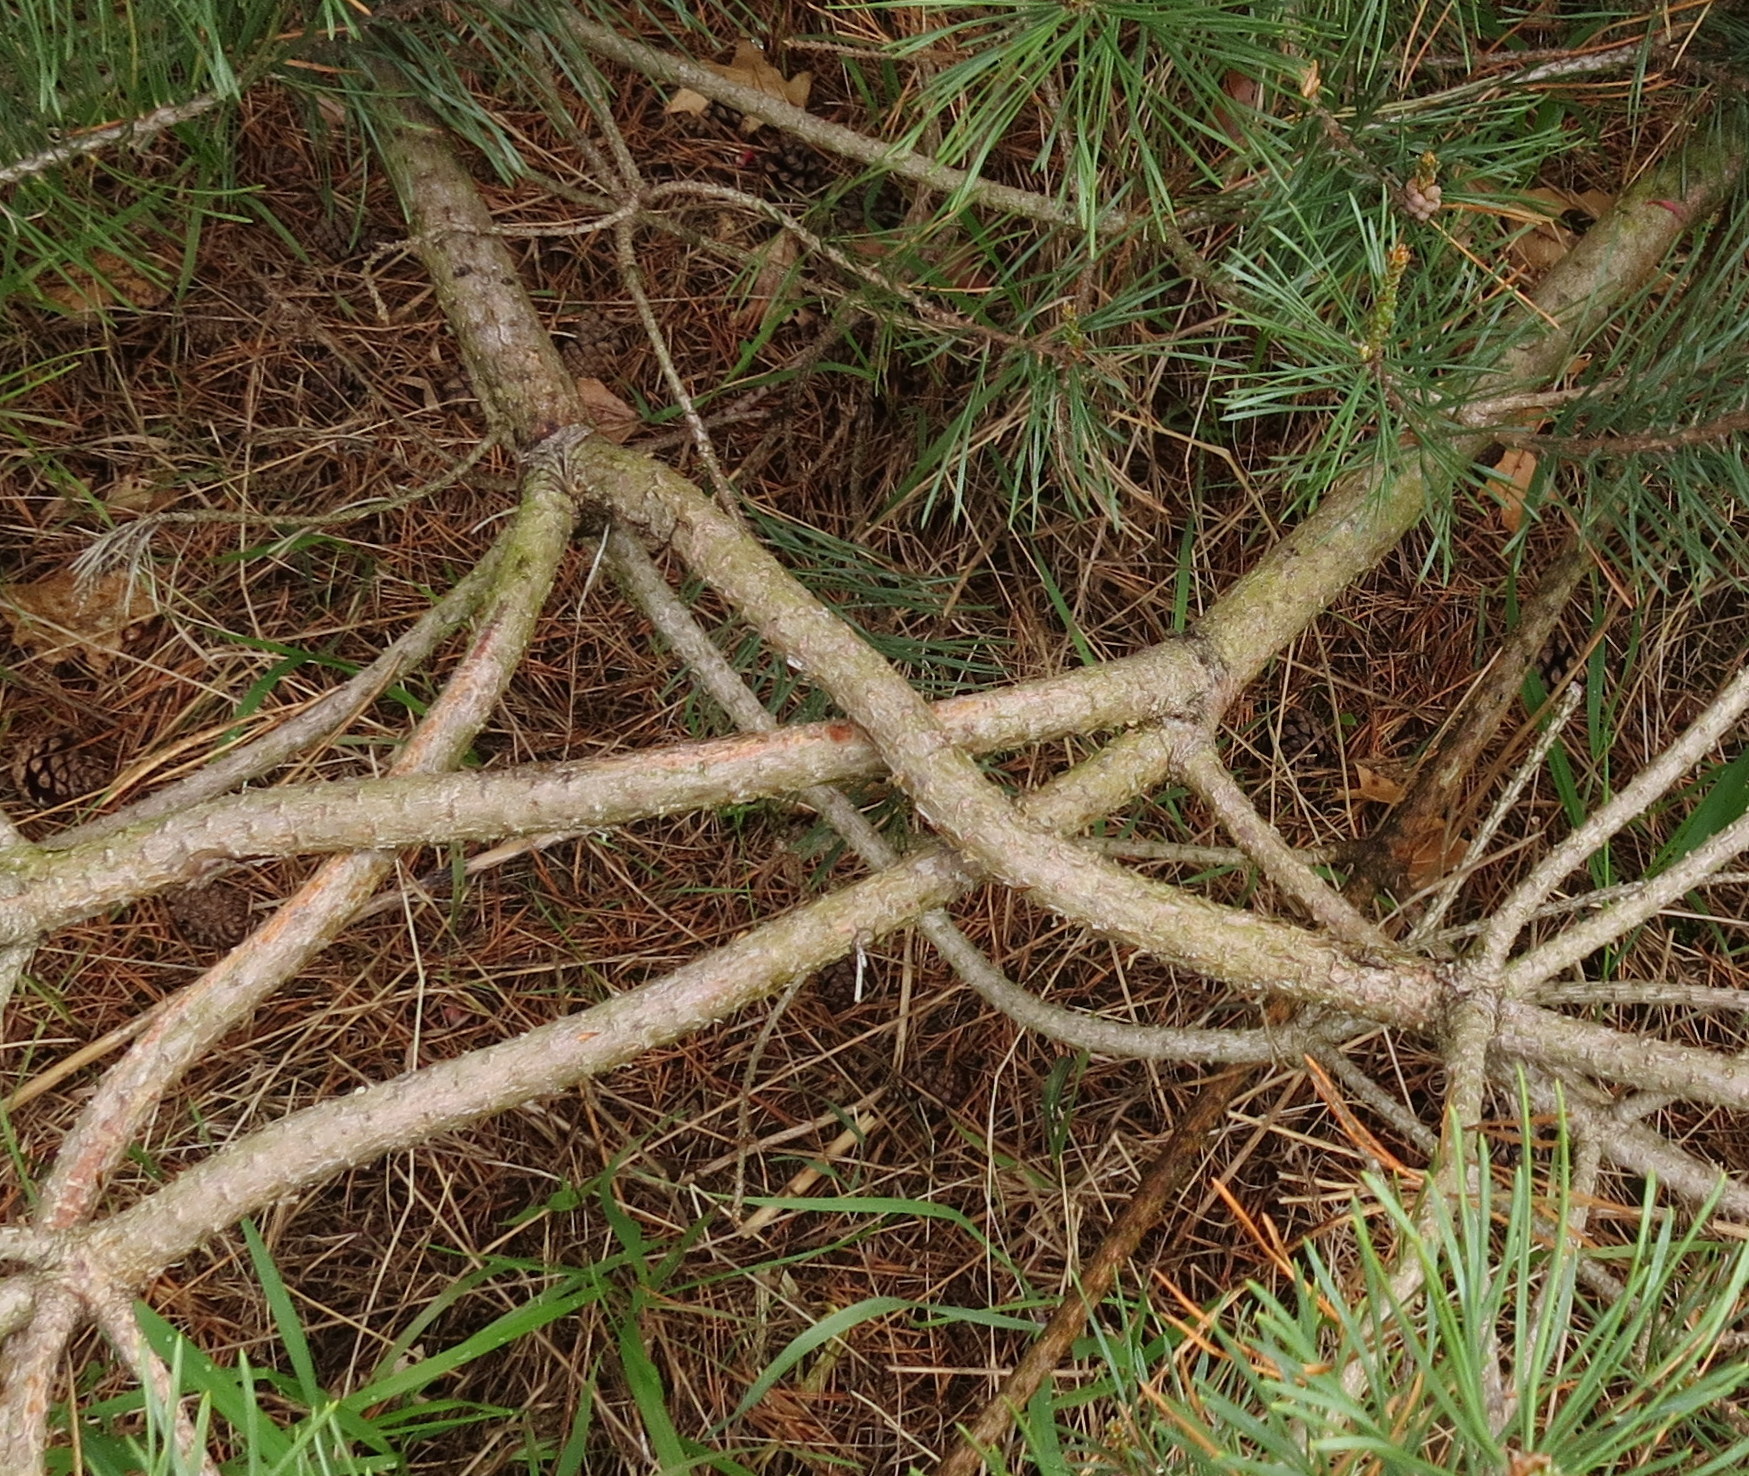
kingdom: Plantae
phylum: Tracheophyta
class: Pinopsida
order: Pinales
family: Pinaceae
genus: Pinus
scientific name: Pinus sylvestris
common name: Scots pine
